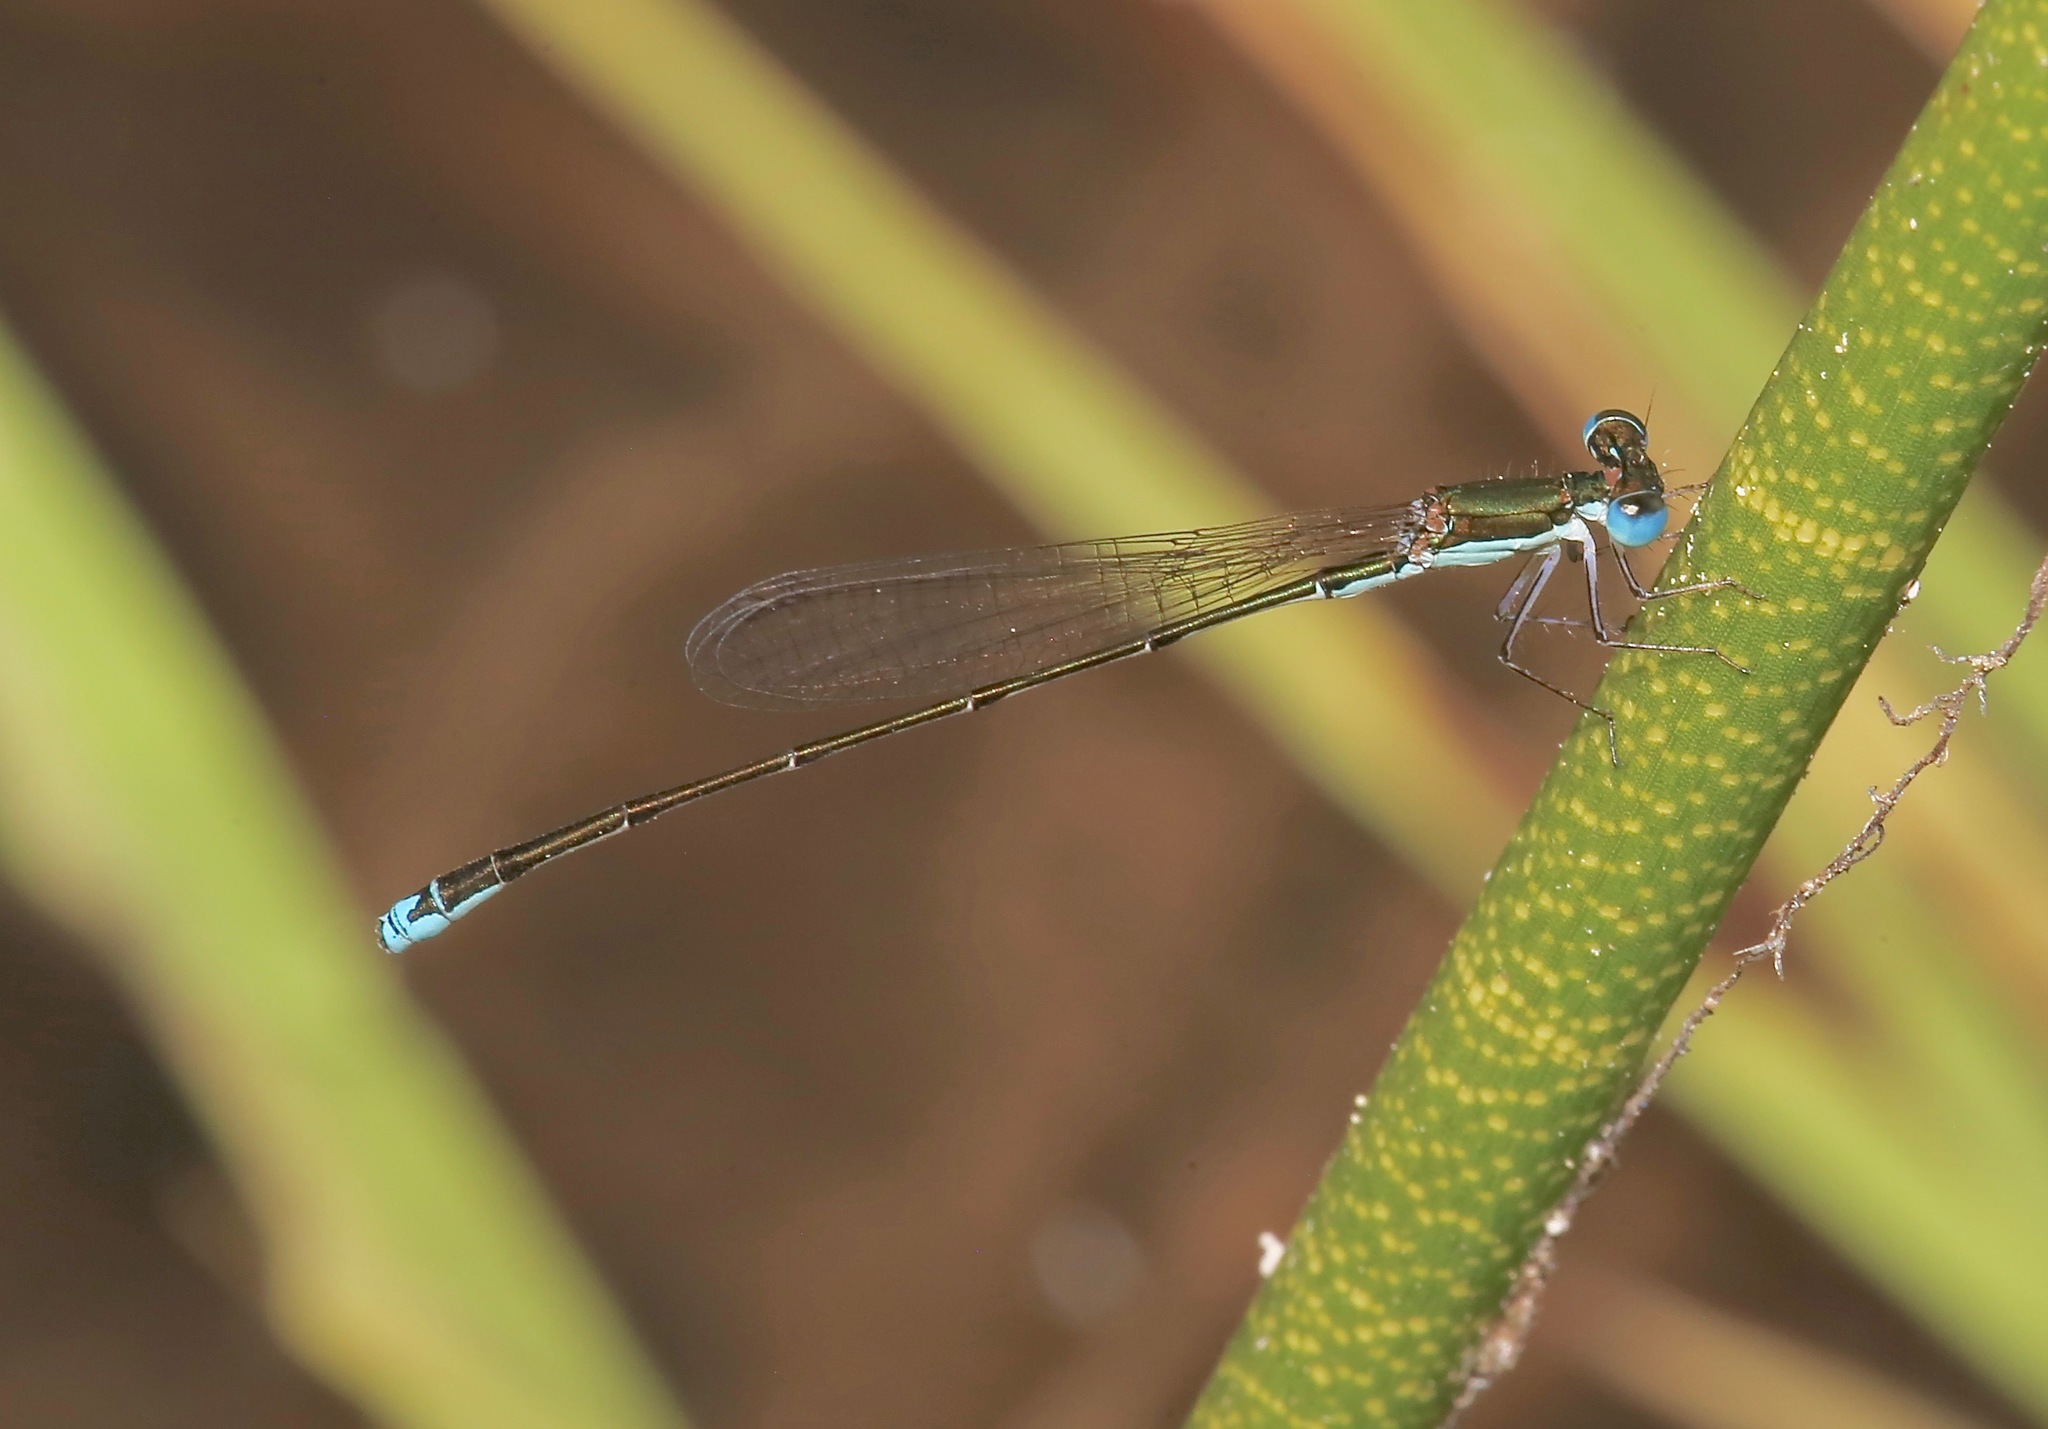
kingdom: Animalia
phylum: Arthropoda
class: Insecta
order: Odonata
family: Coenagrionidae
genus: Nehalennia
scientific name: Nehalennia integricollis
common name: Southern sprite
